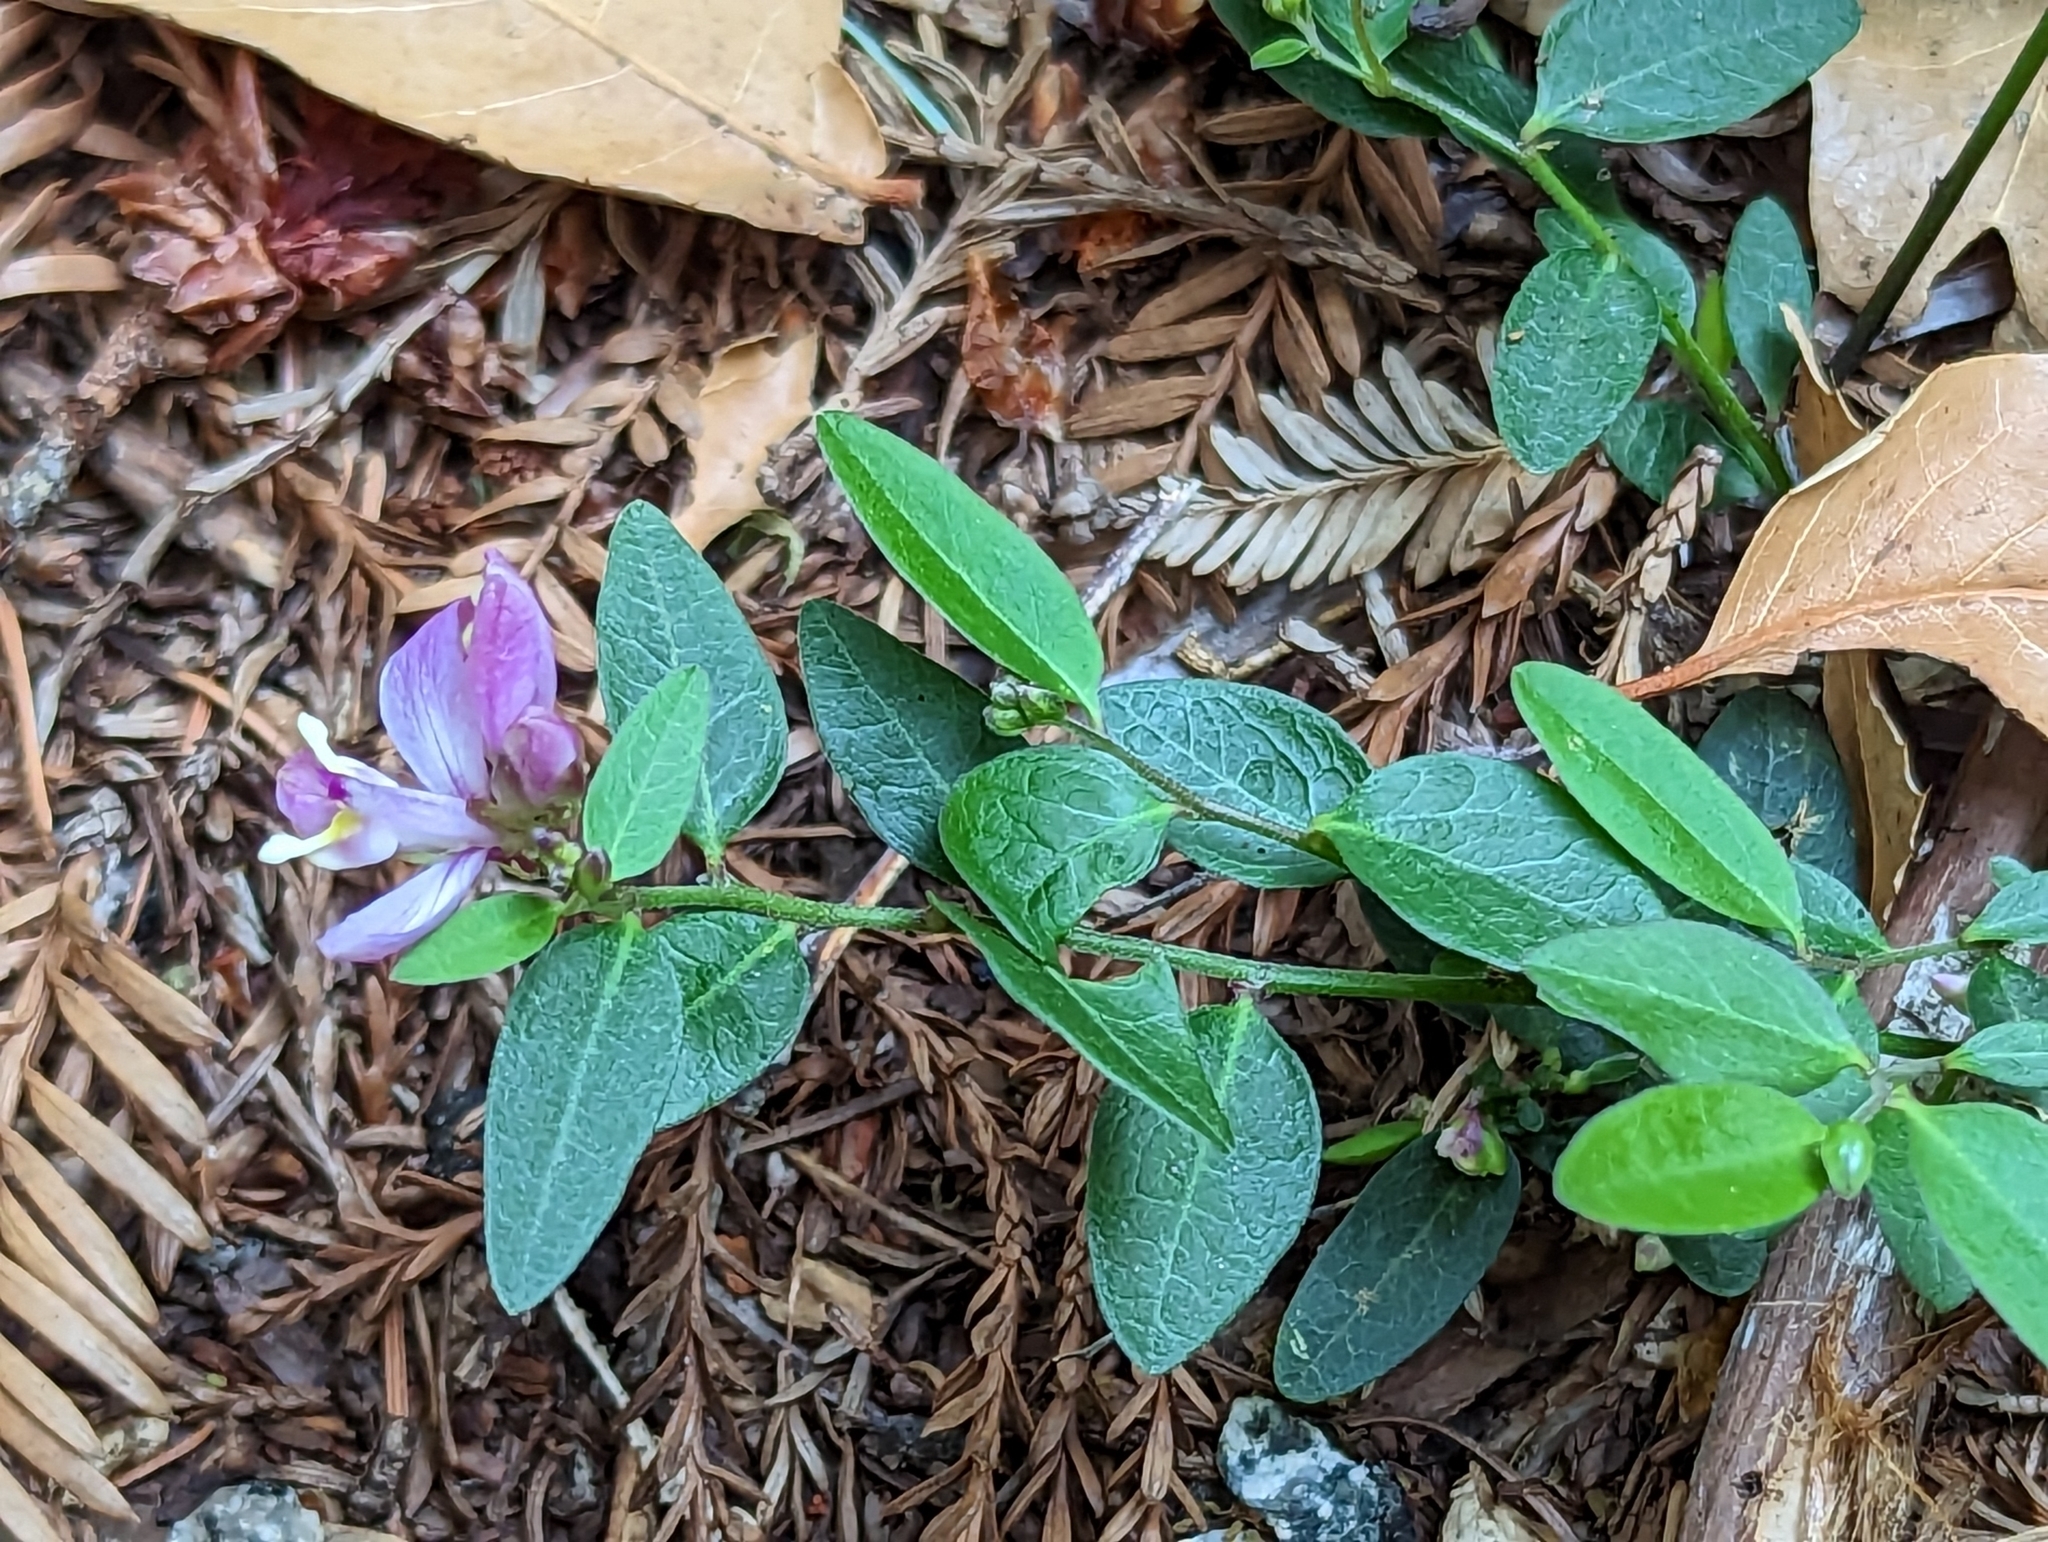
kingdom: Plantae
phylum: Tracheophyta
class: Magnoliopsida
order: Fabales
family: Polygalaceae
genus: Rhinotropis
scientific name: Rhinotropis californica
